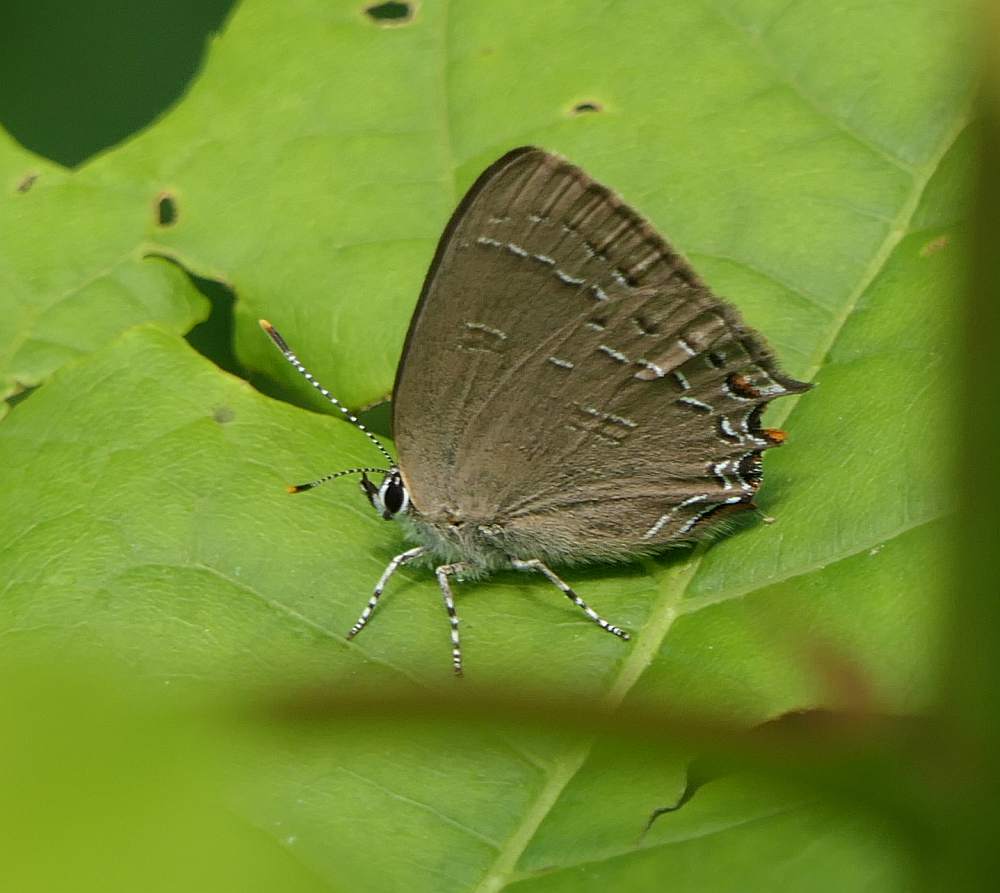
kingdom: Animalia
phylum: Arthropoda
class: Insecta
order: Lepidoptera
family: Lycaenidae
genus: Satyrium
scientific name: Satyrium calanus
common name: Banded hairstreak
